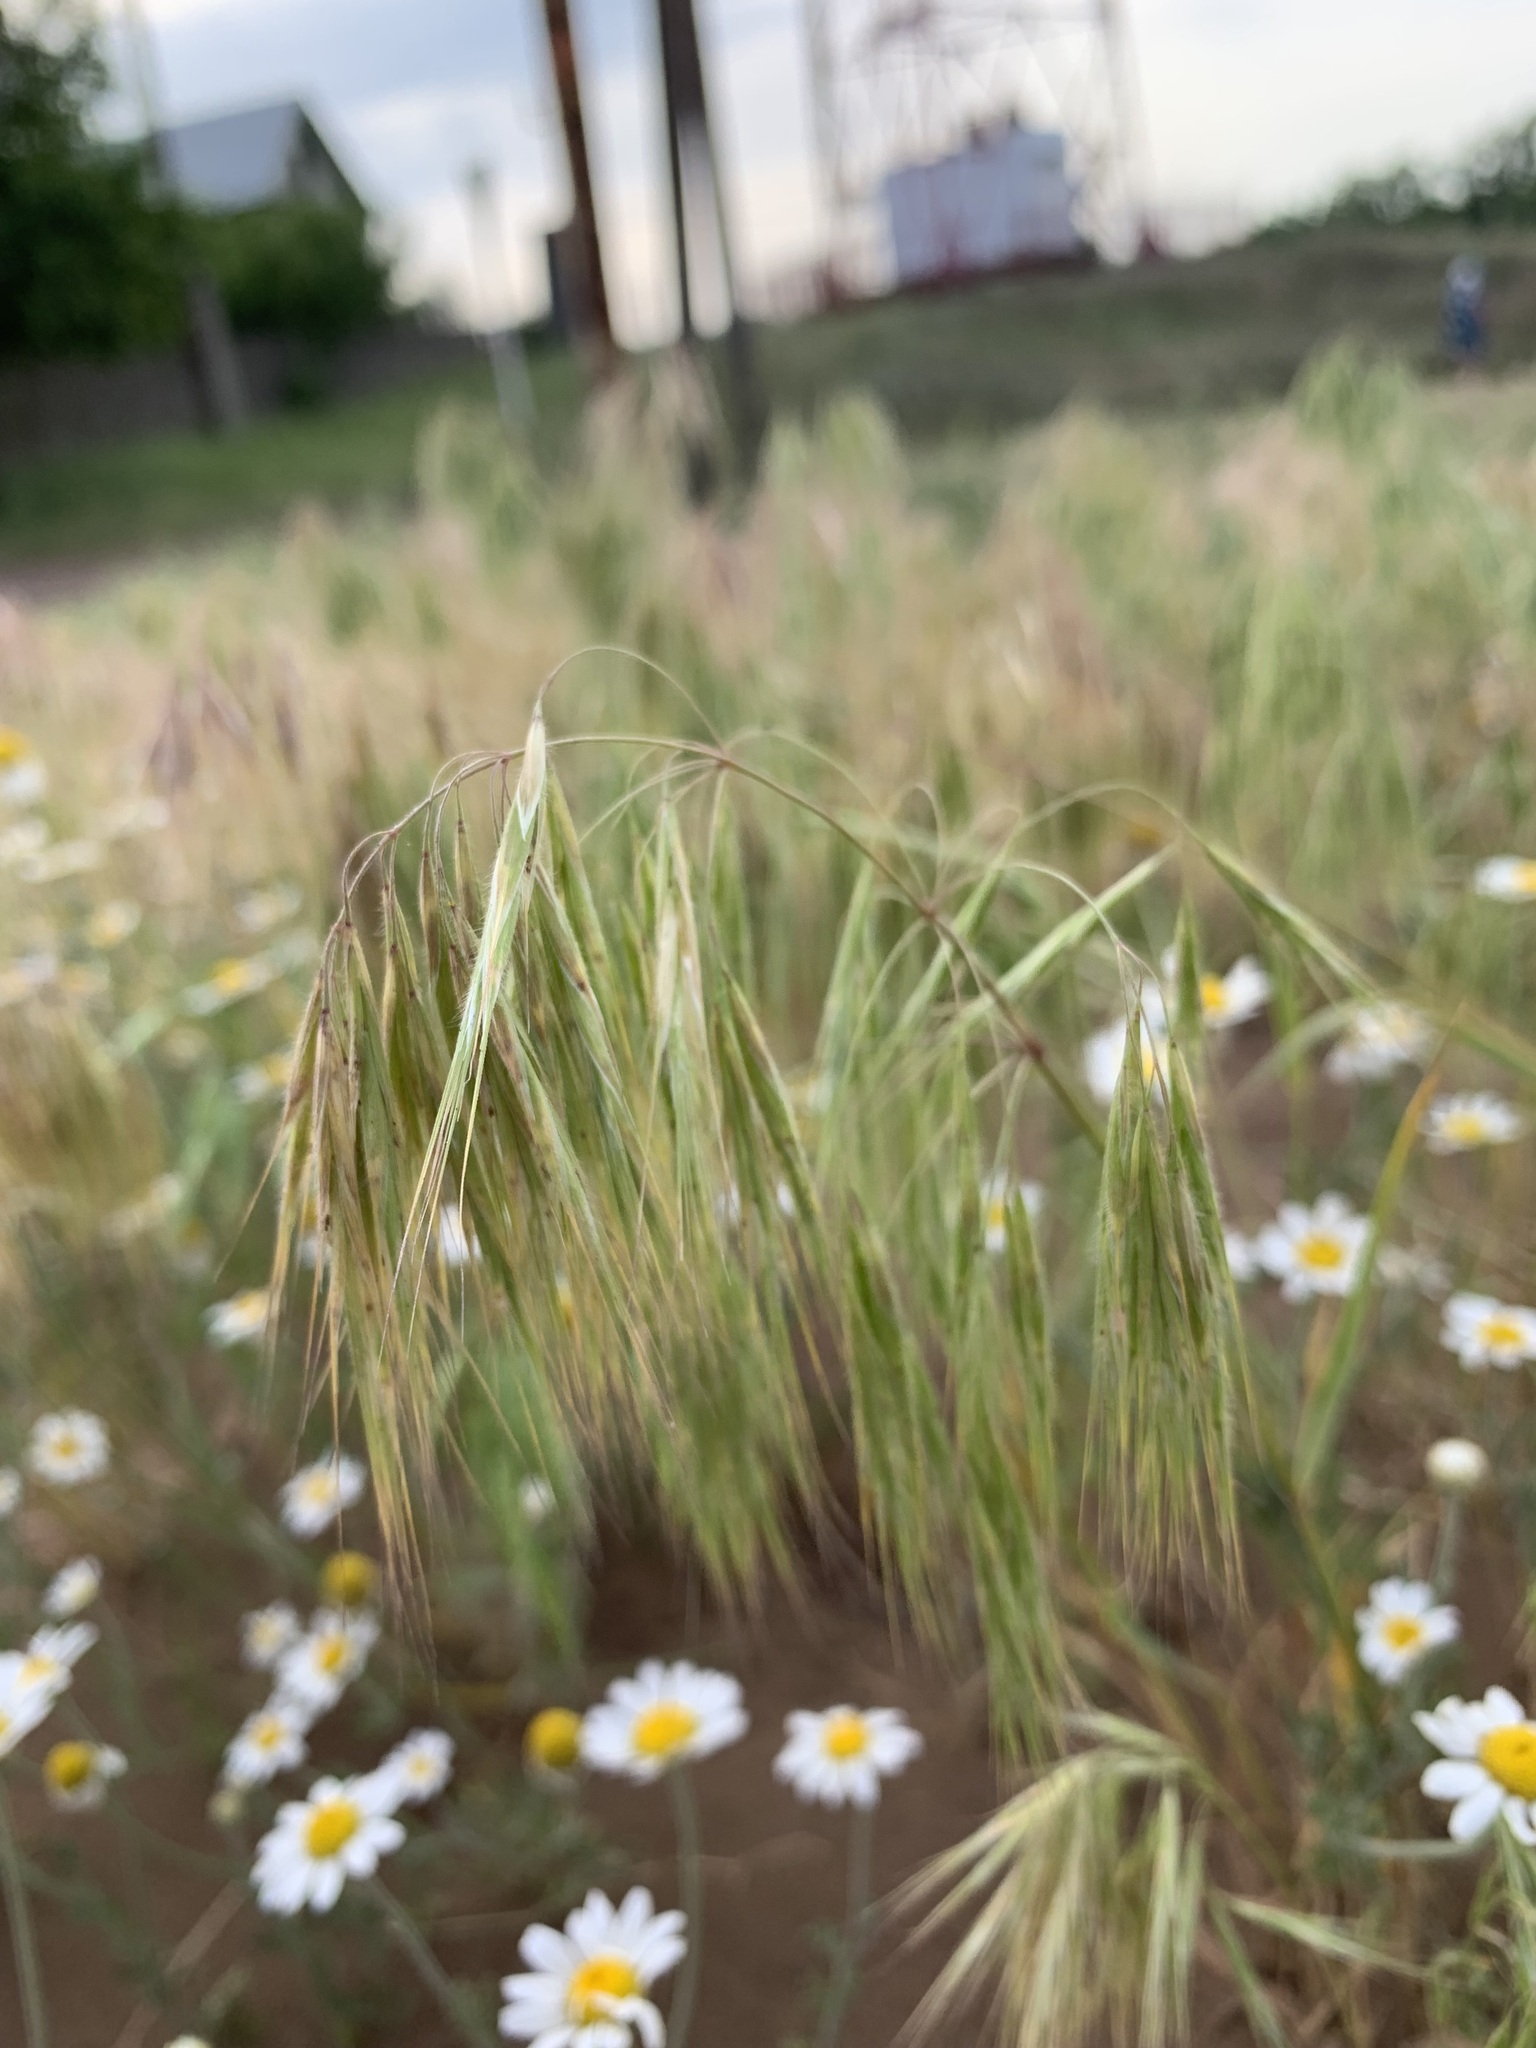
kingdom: Plantae
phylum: Tracheophyta
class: Liliopsida
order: Poales
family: Poaceae
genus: Bromus
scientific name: Bromus tectorum
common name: Cheatgrass
